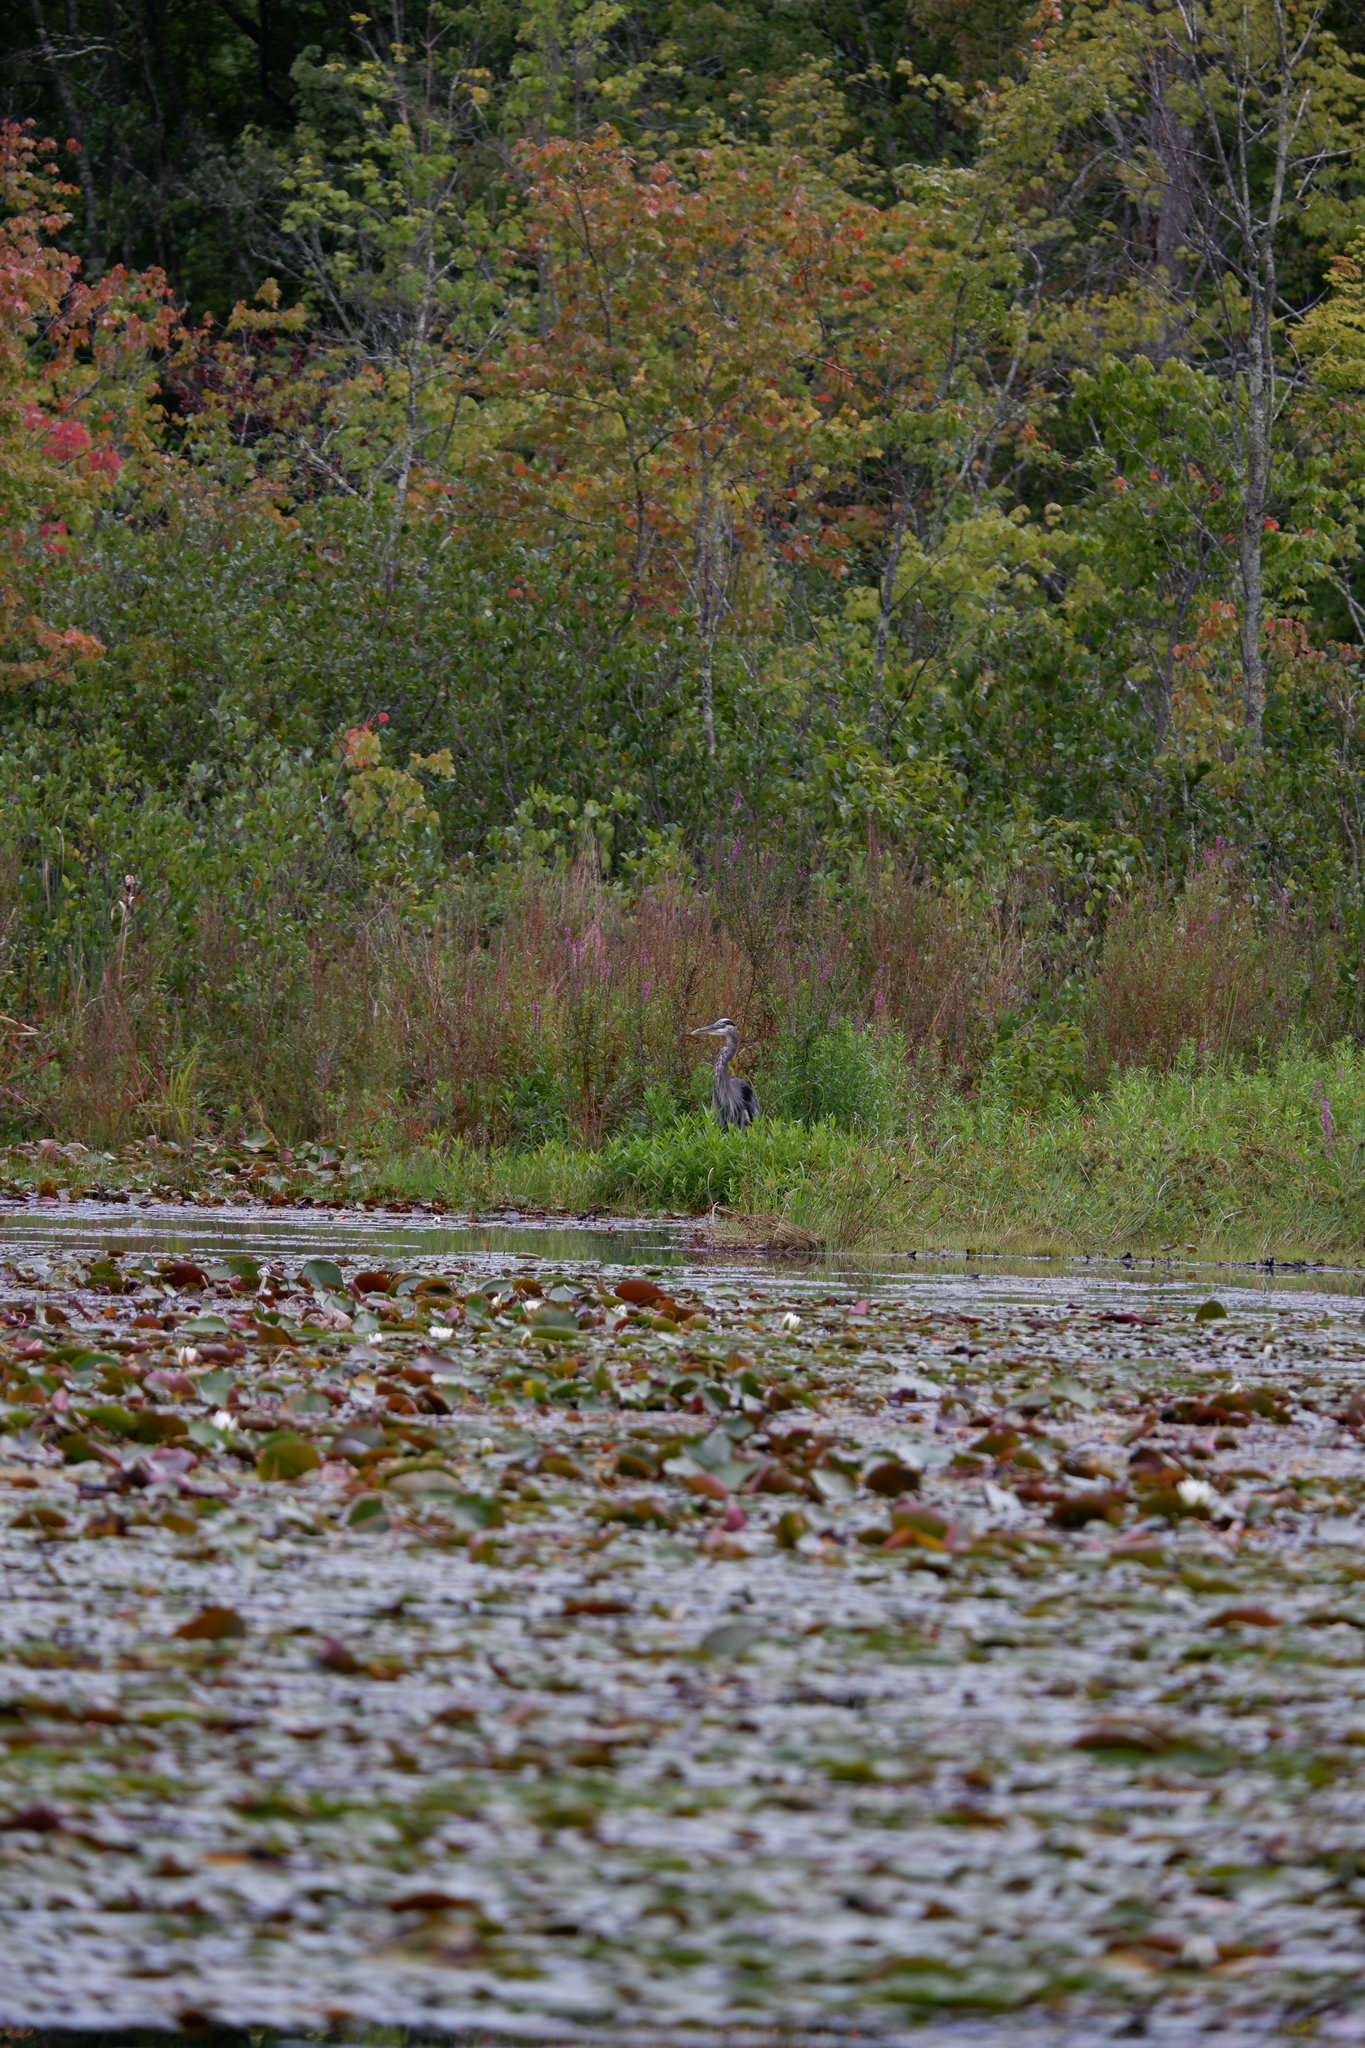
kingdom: Animalia
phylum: Chordata
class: Aves
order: Pelecaniformes
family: Ardeidae
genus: Ardea
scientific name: Ardea herodias
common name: Great blue heron
